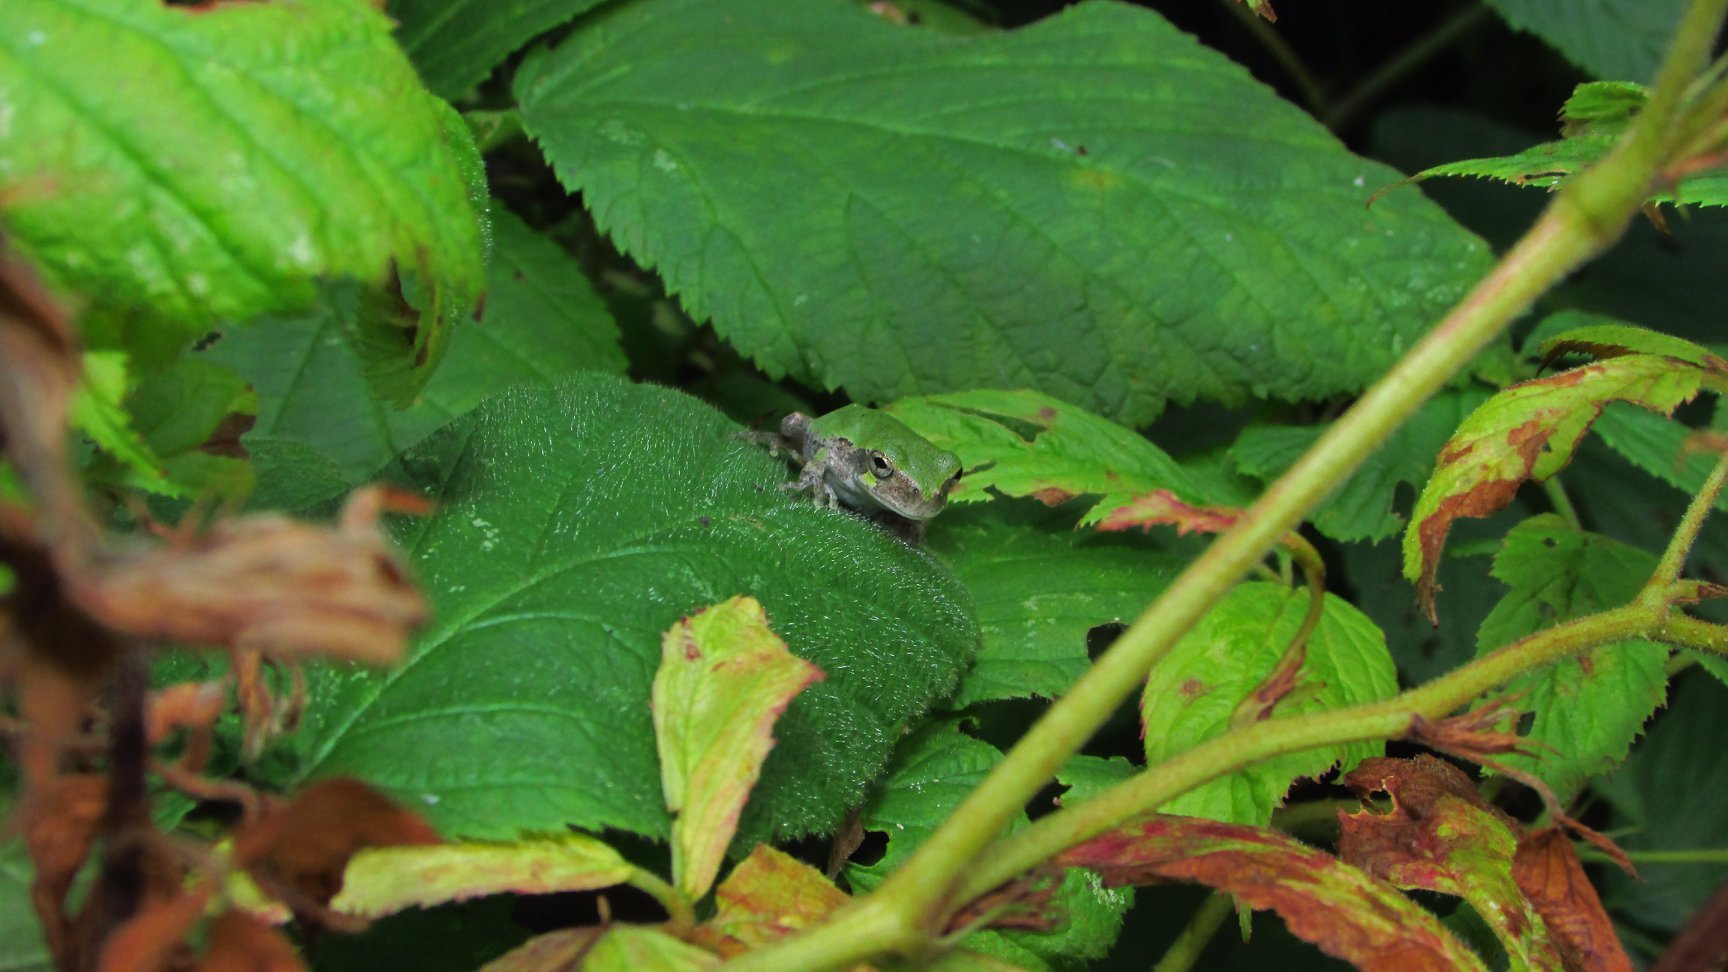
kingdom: Animalia
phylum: Chordata
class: Amphibia
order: Anura
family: Hylidae
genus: Dryophytes
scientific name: Dryophytes versicolor
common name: Gray treefrog
